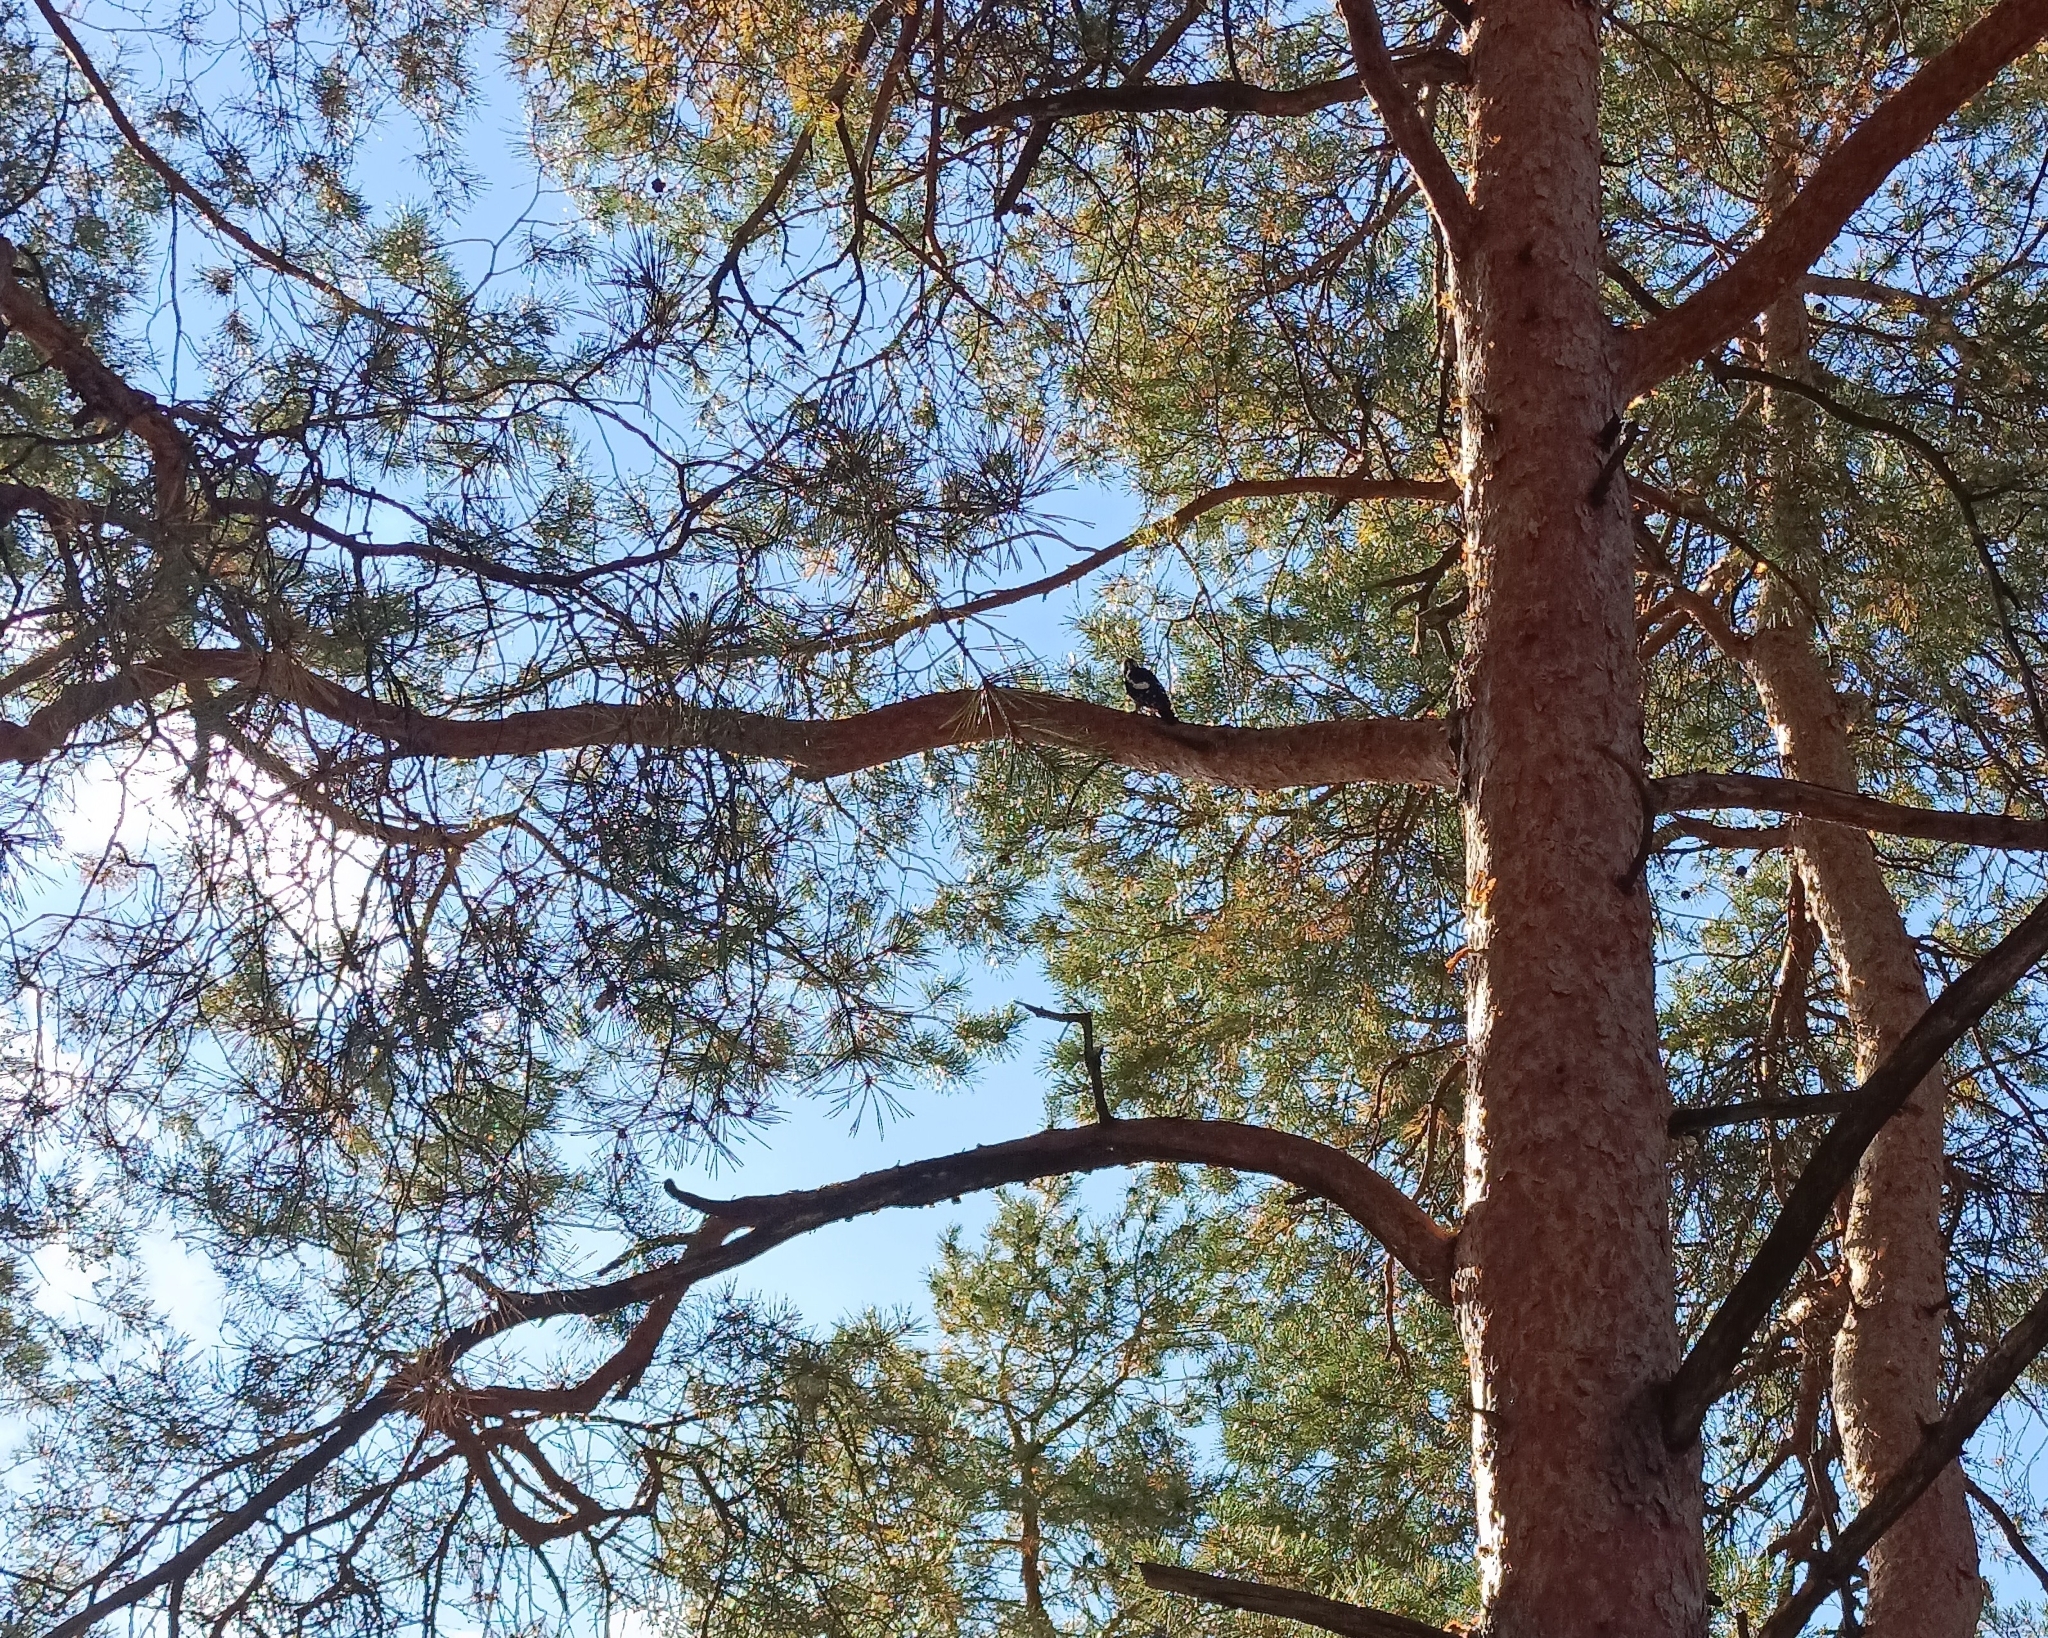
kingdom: Animalia
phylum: Chordata
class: Aves
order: Piciformes
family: Picidae
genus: Dendrocopos
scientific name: Dendrocopos major
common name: Great spotted woodpecker
